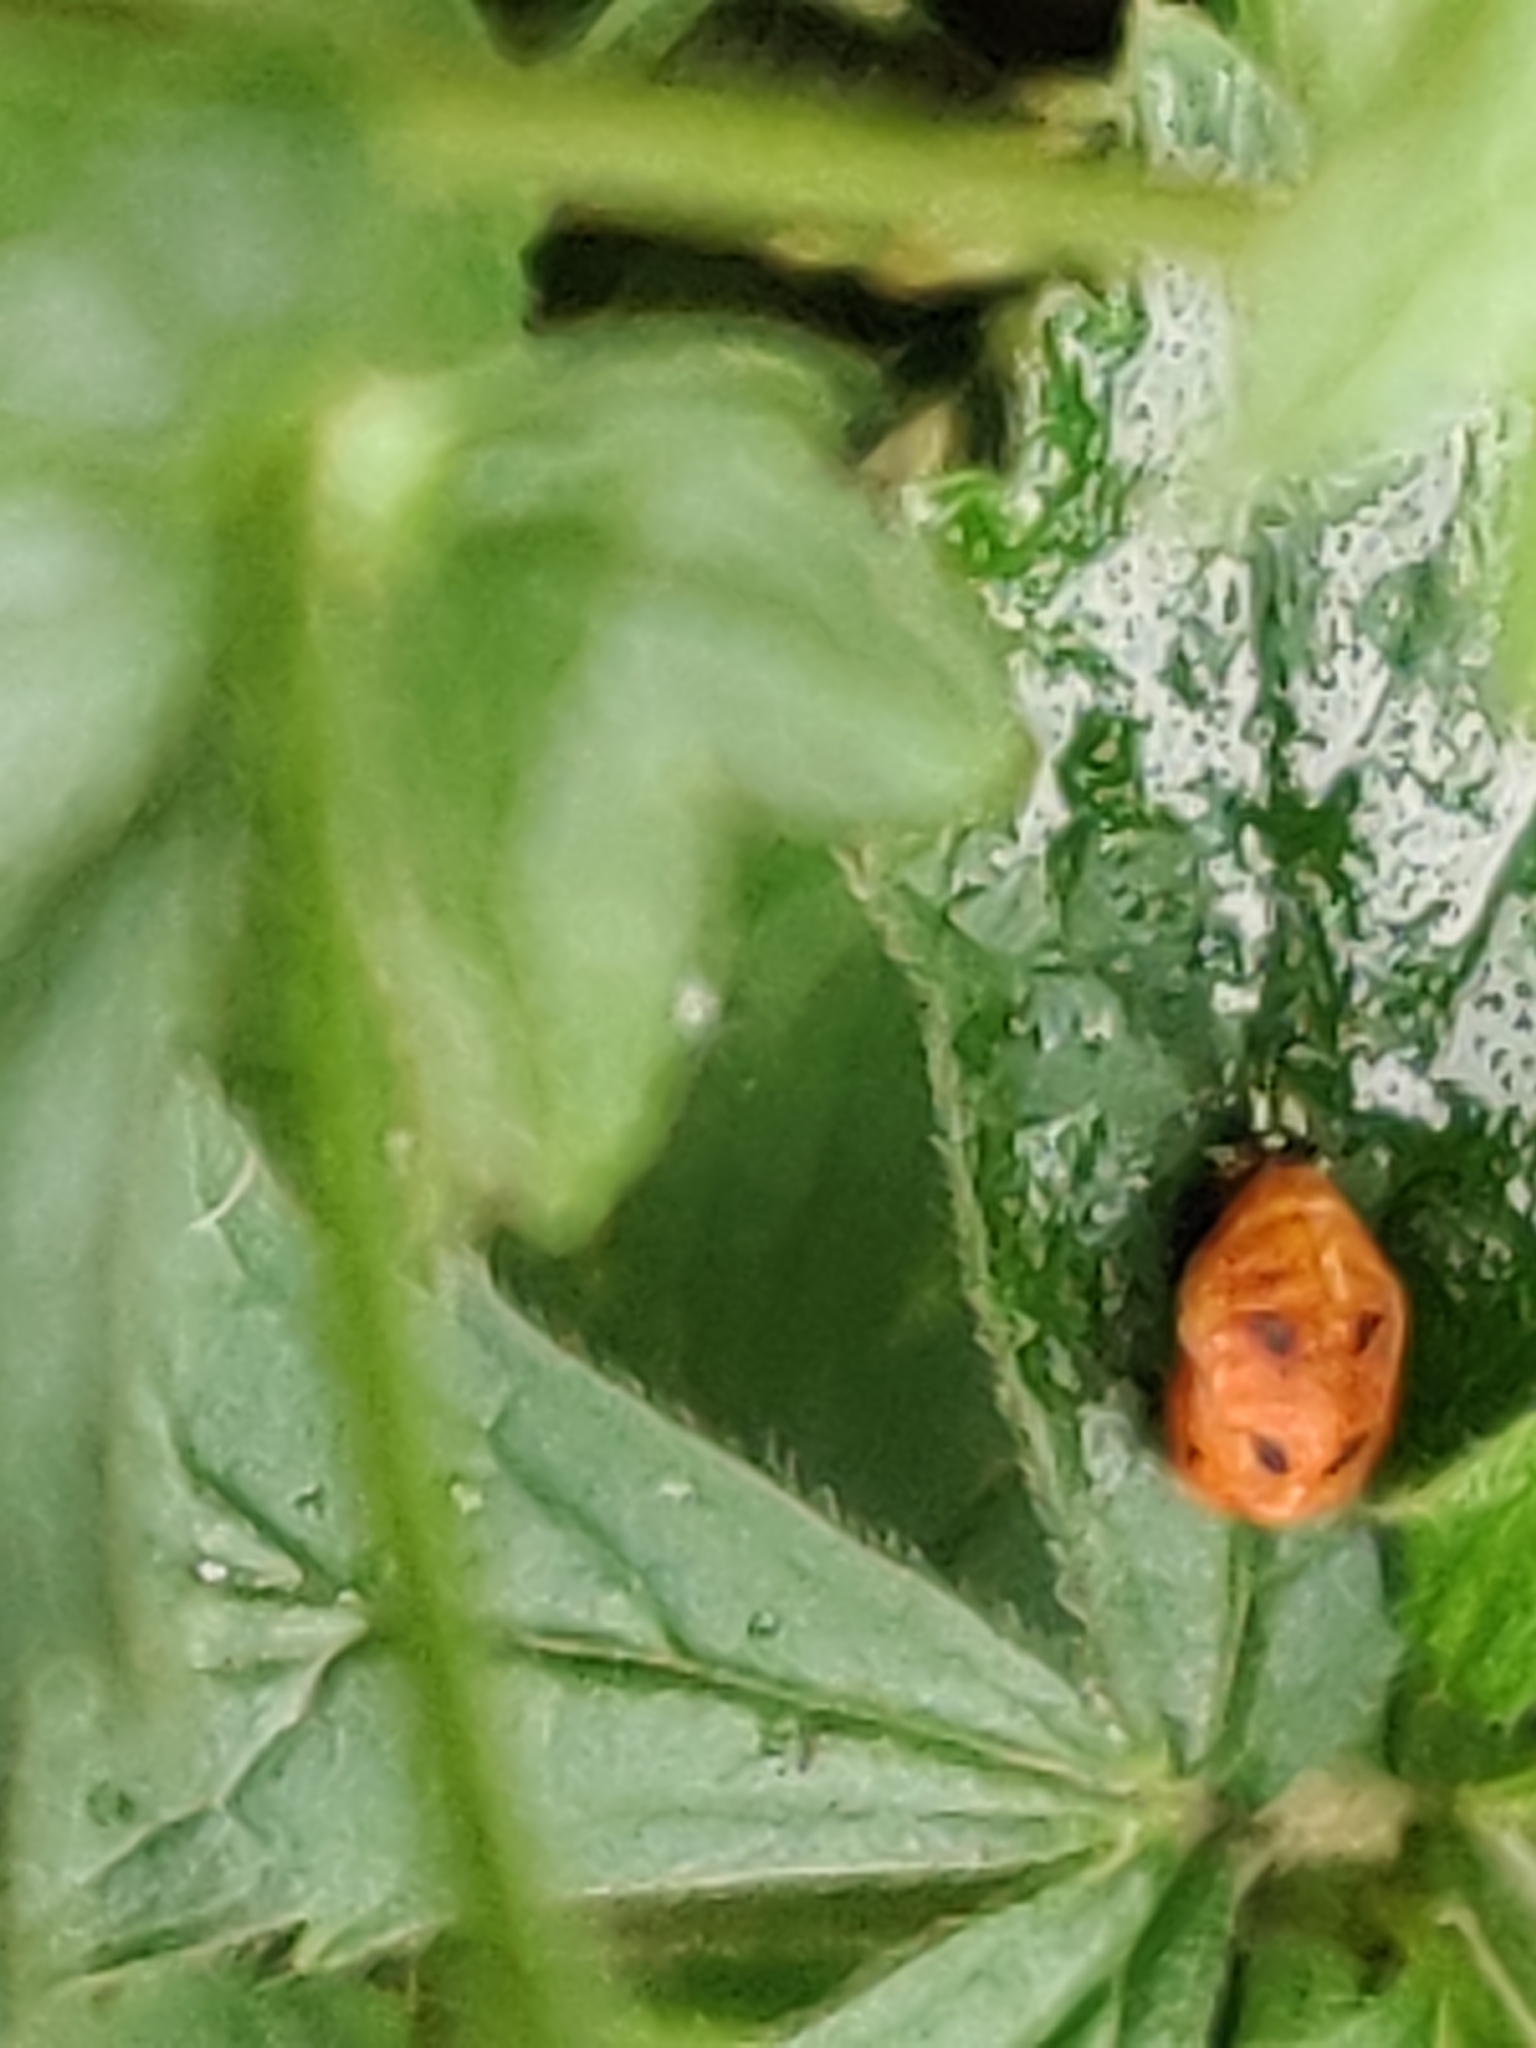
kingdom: Animalia
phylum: Arthropoda
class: Insecta
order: Coleoptera
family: Coccinellidae
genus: Harmonia
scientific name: Harmonia axyridis
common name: Harlequin ladybird
